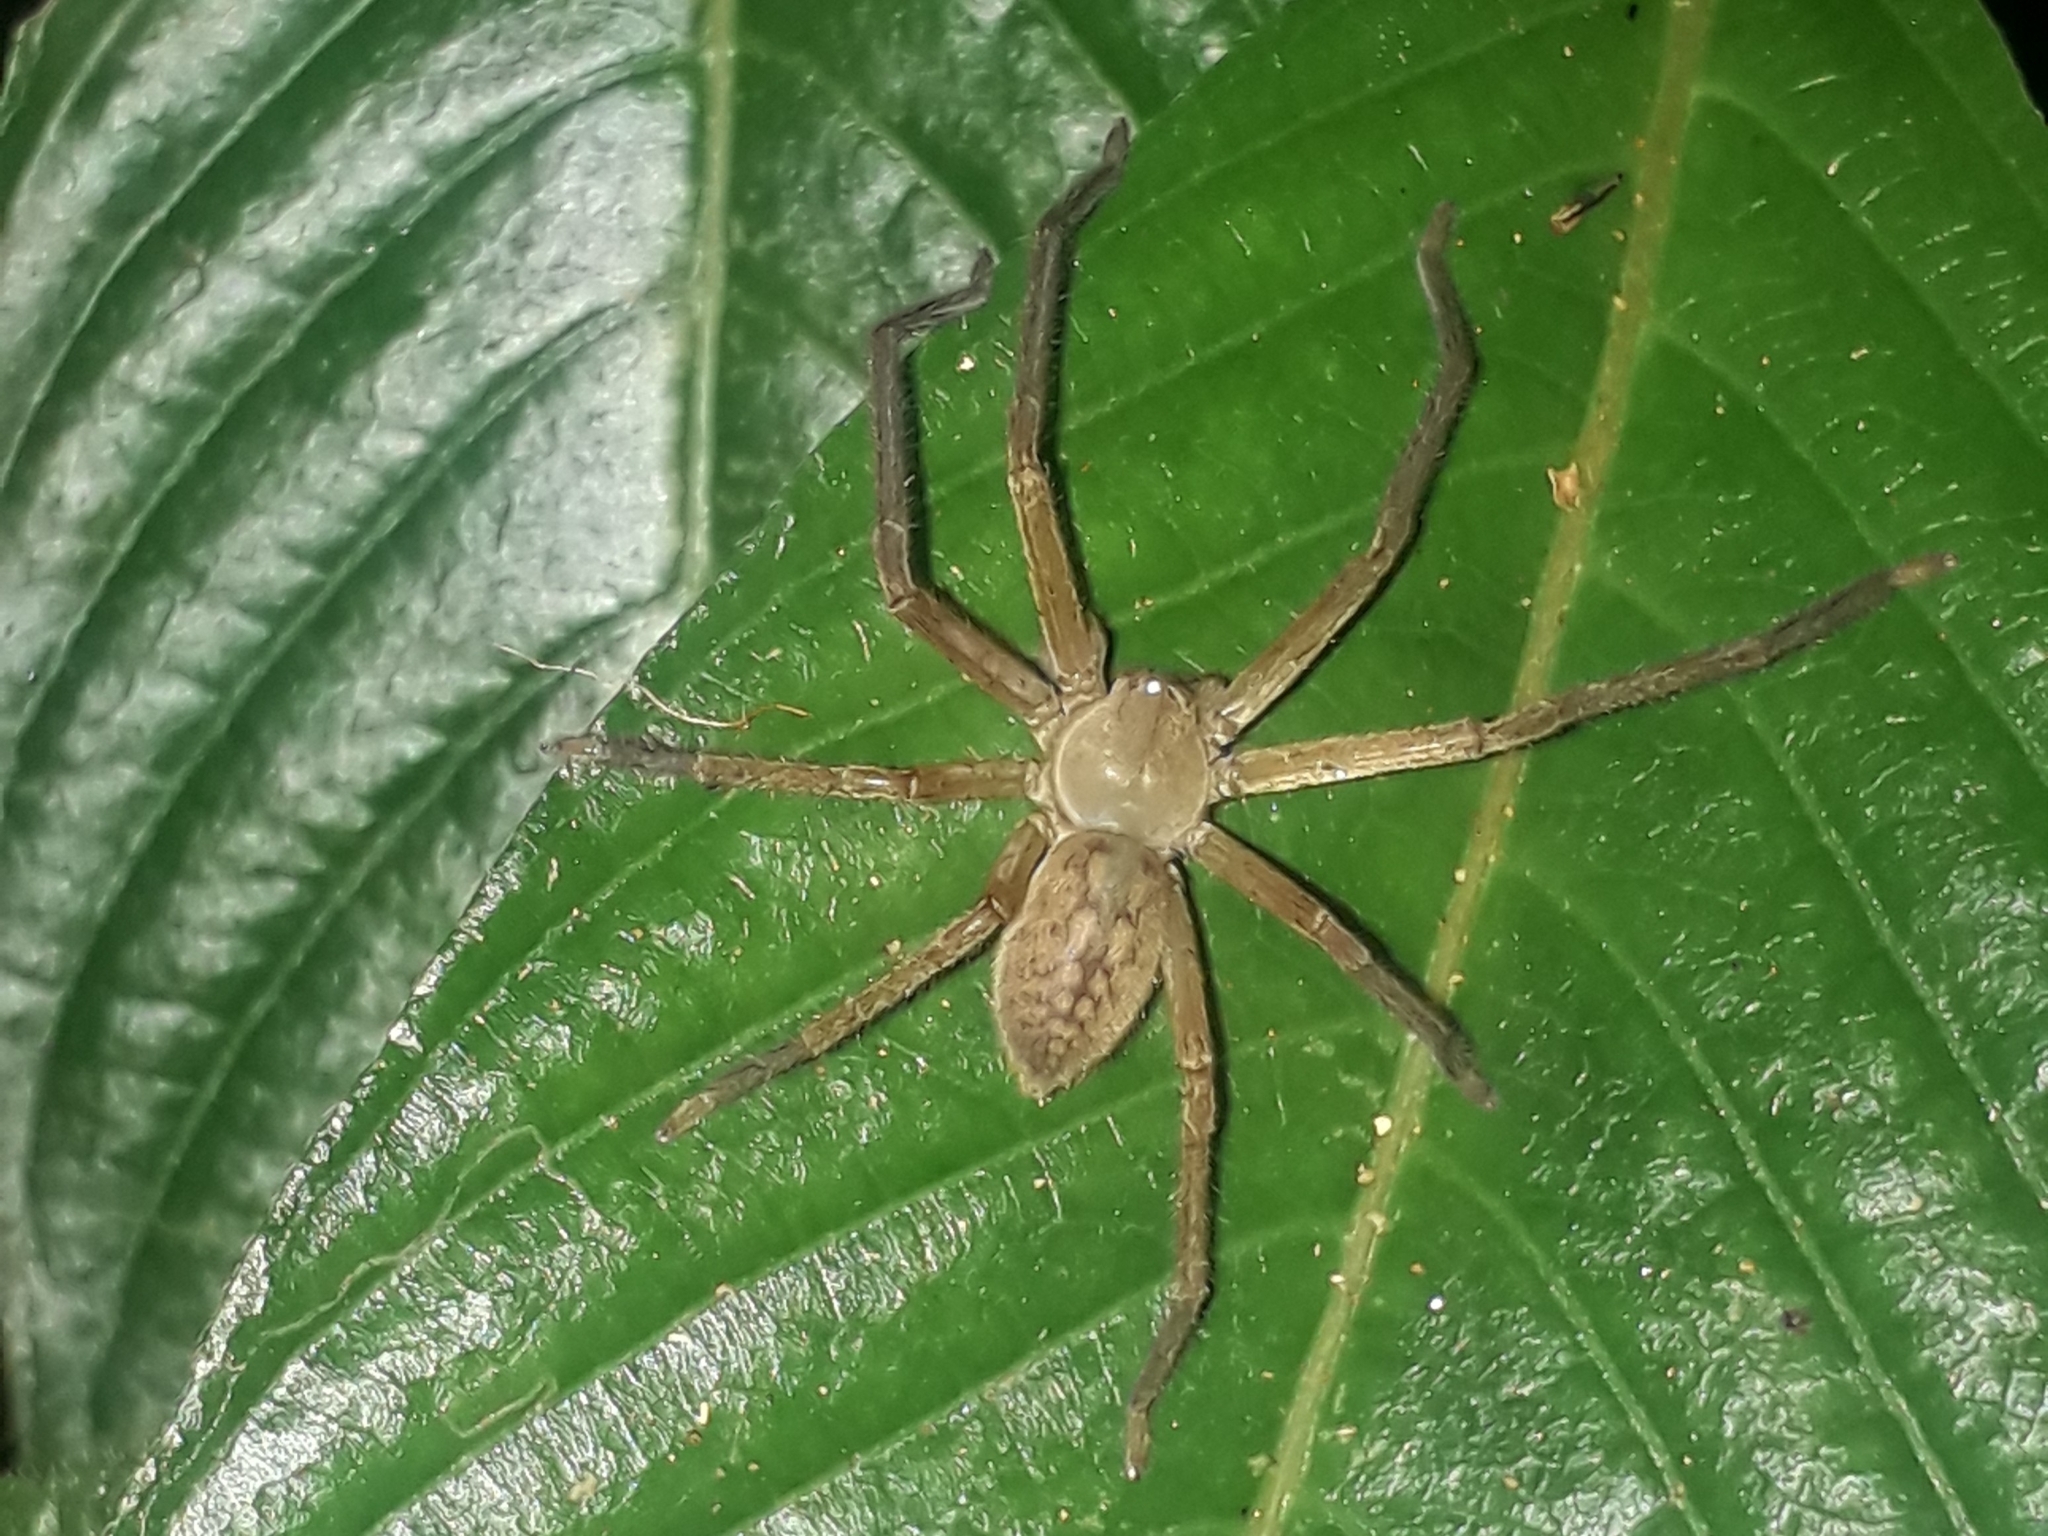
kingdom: Animalia
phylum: Arthropoda
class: Arachnida
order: Araneae
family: Sparassidae
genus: Meri
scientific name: Meri martinique
